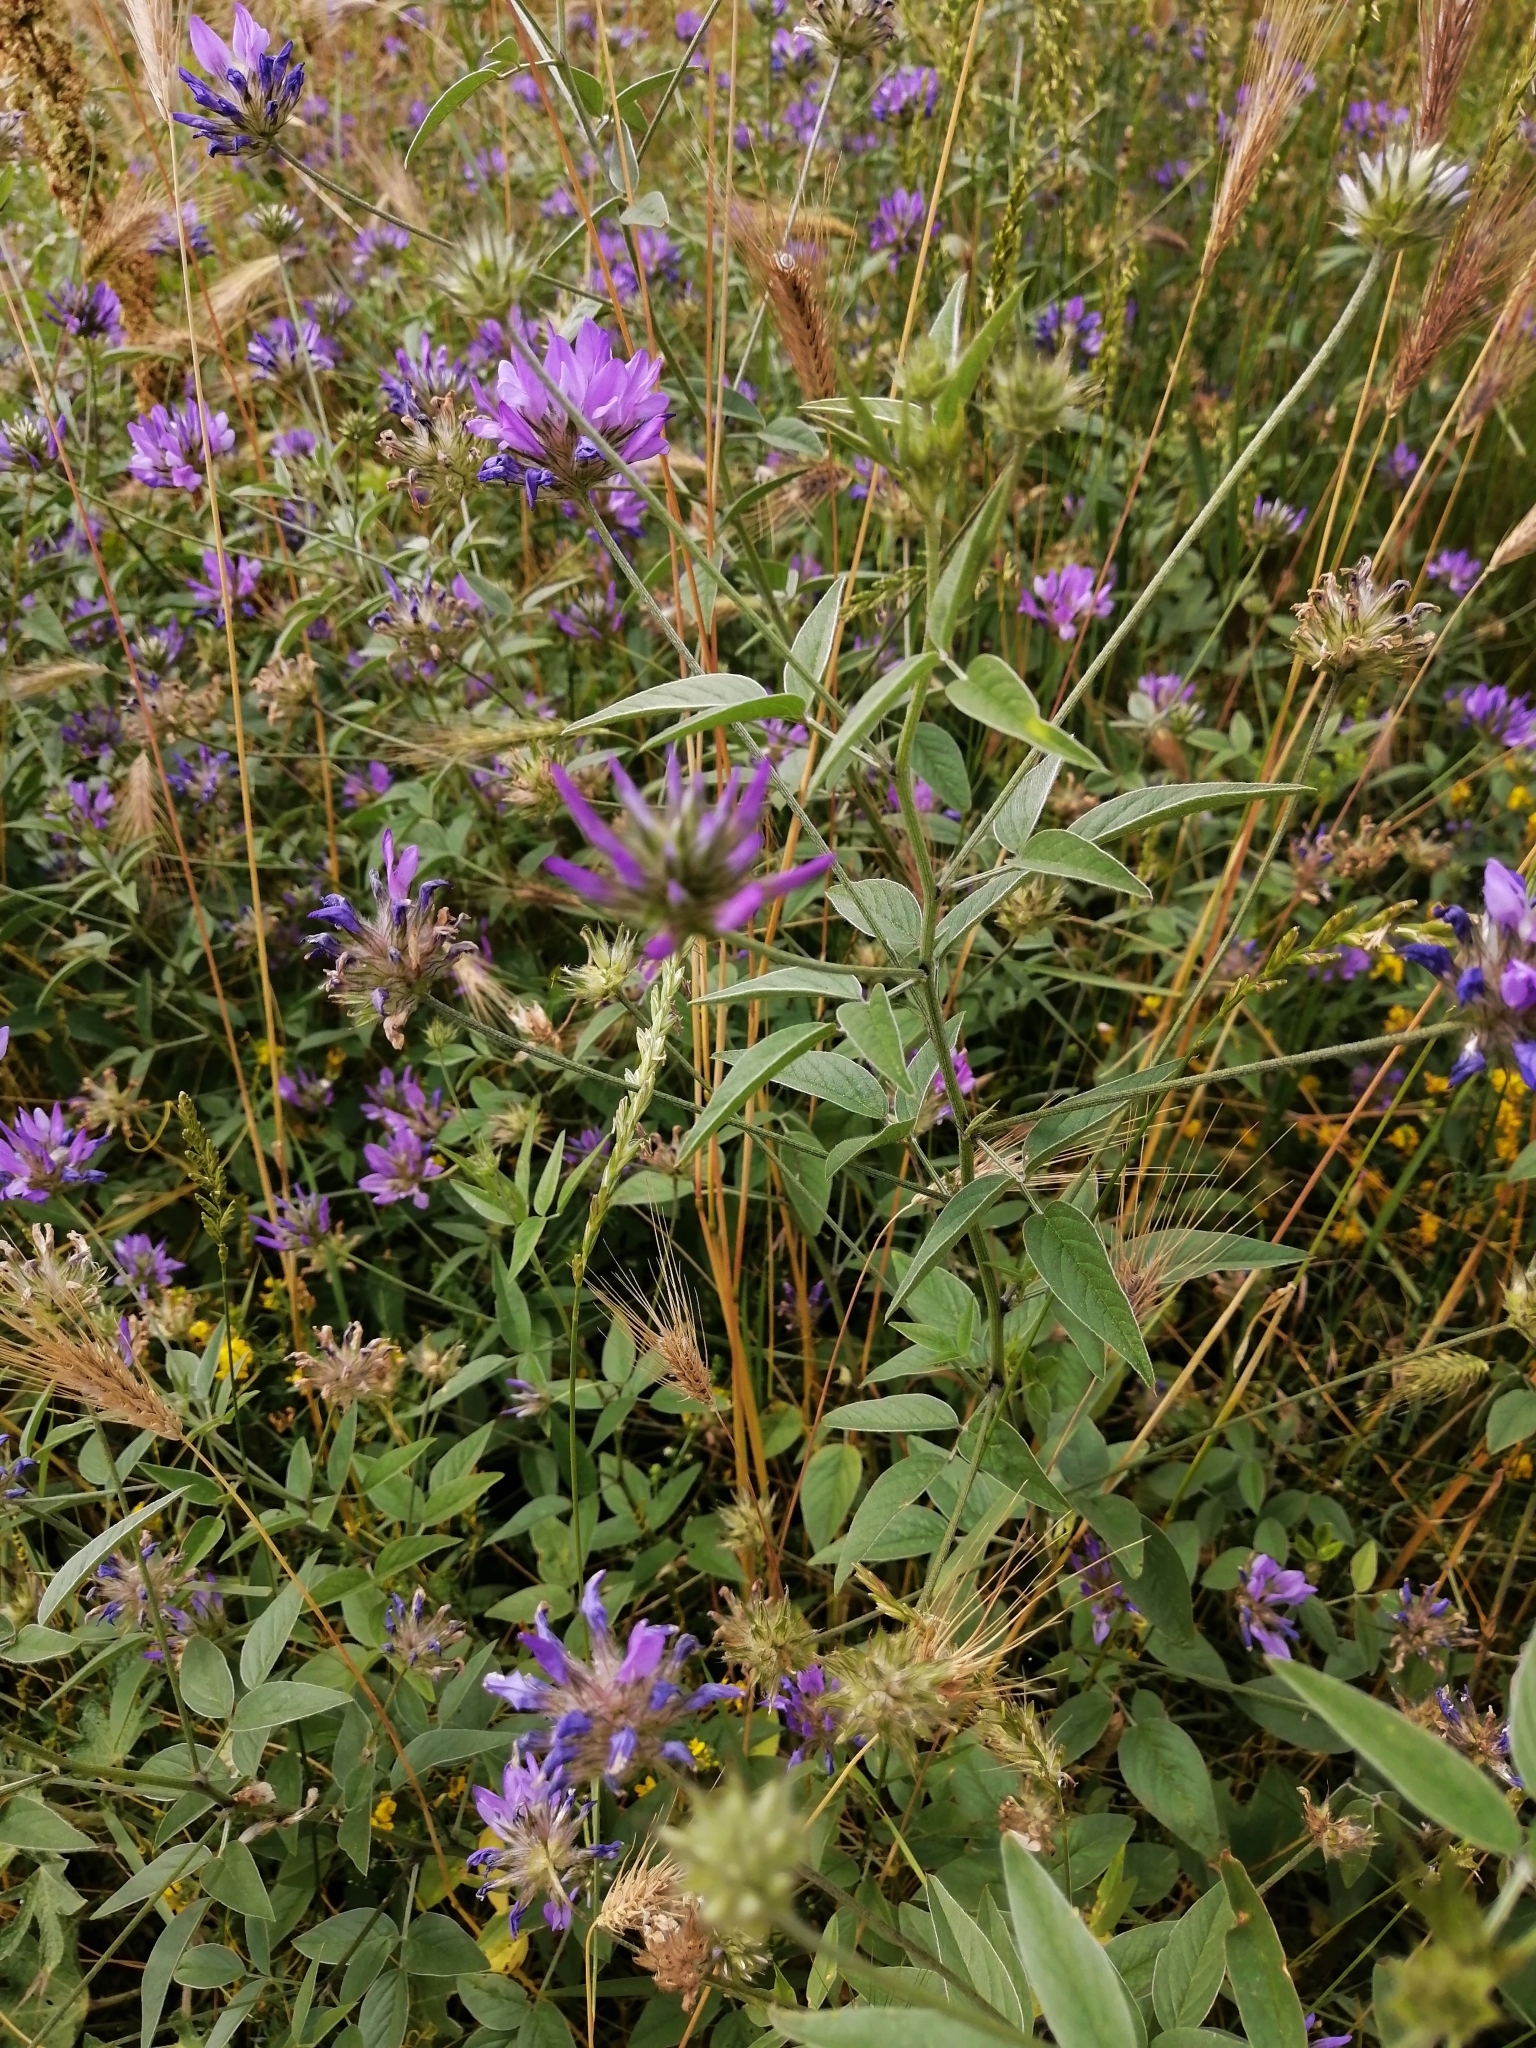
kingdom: Plantae
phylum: Tracheophyta
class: Magnoliopsida
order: Fabales
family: Fabaceae
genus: Bituminaria
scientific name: Bituminaria bituminosa
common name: Arabian pea
